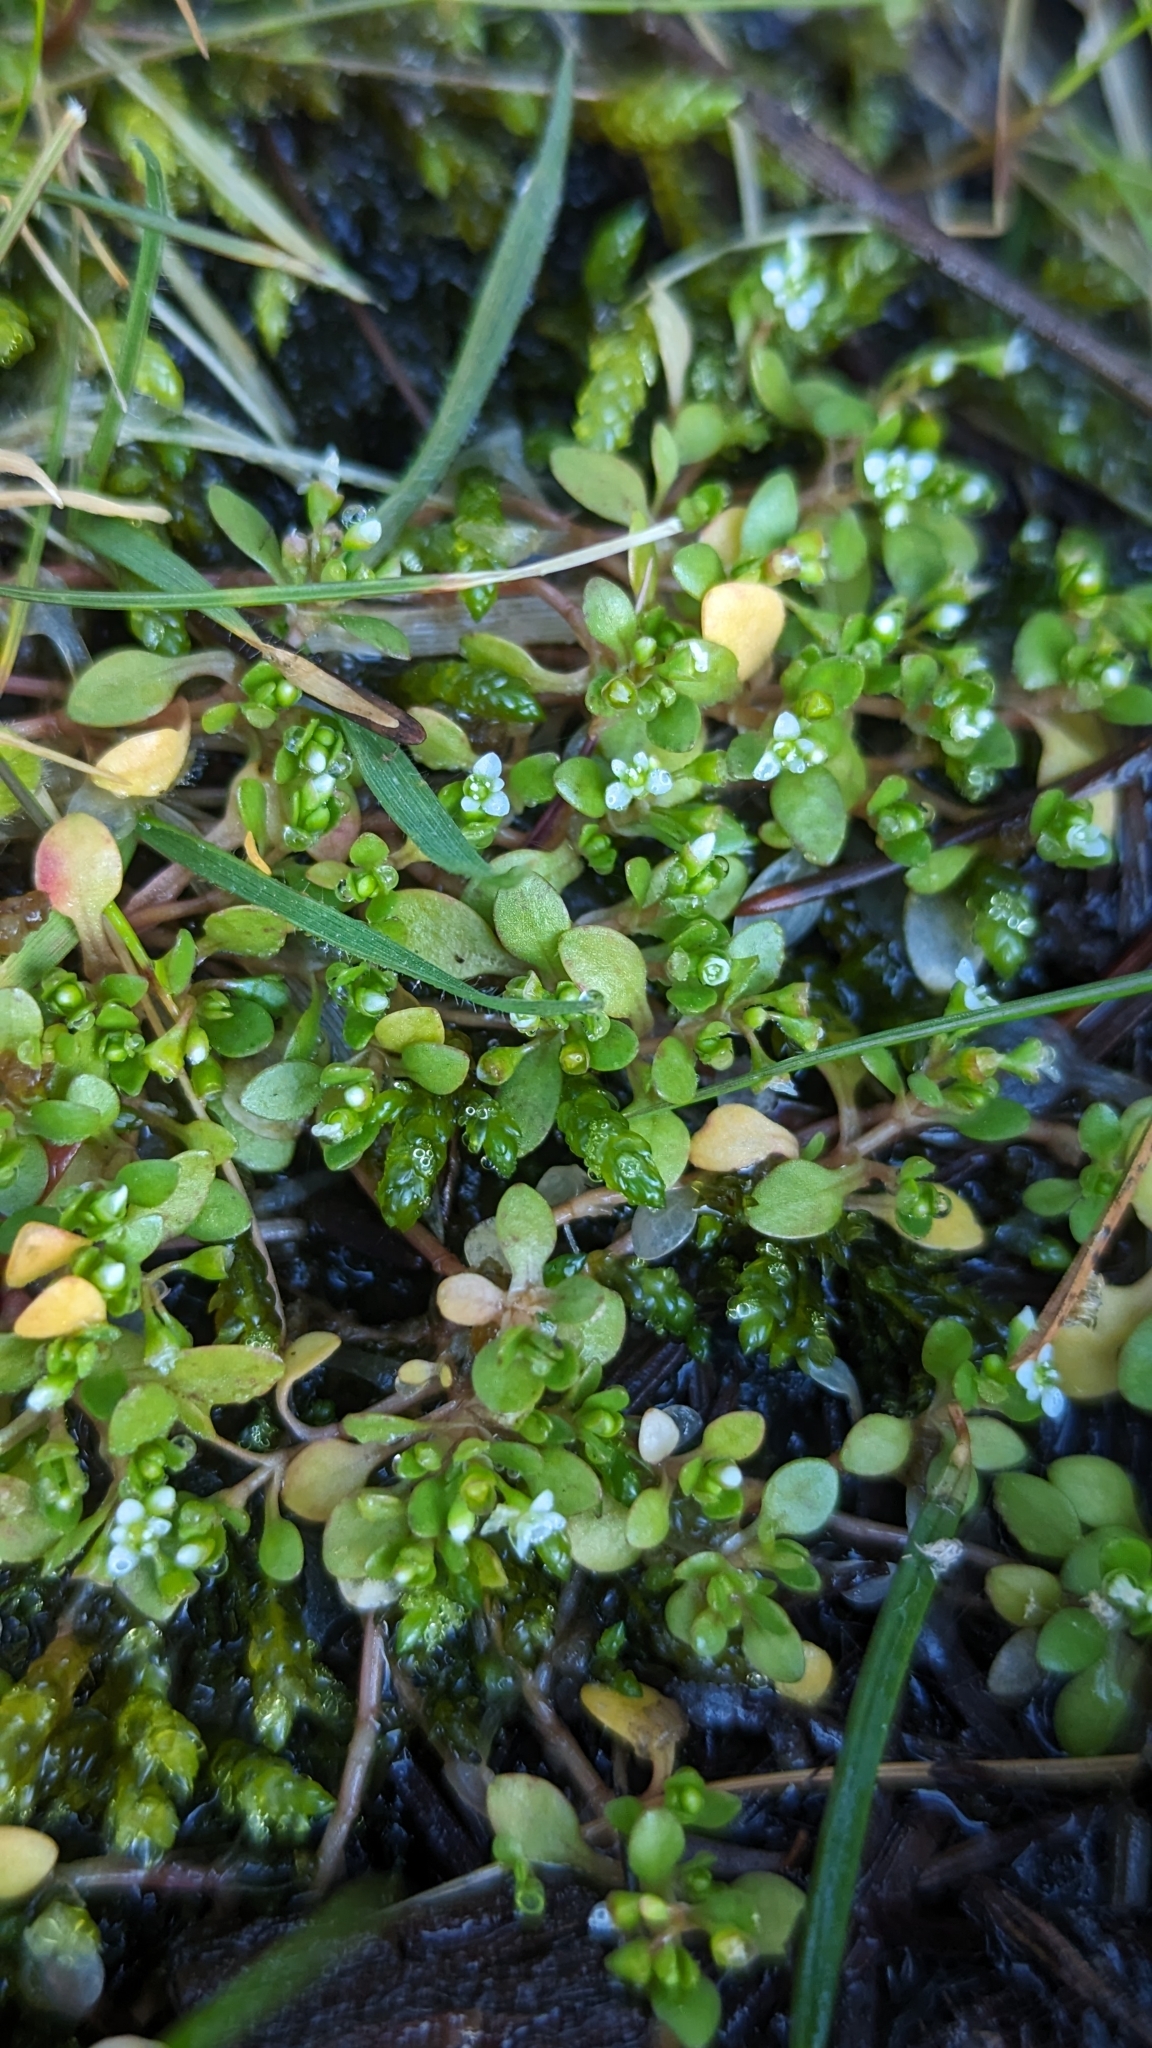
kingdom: Plantae
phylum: Tracheophyta
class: Magnoliopsida
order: Caryophyllales
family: Montiaceae
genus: Montia
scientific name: Montia fontana
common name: Blinks
